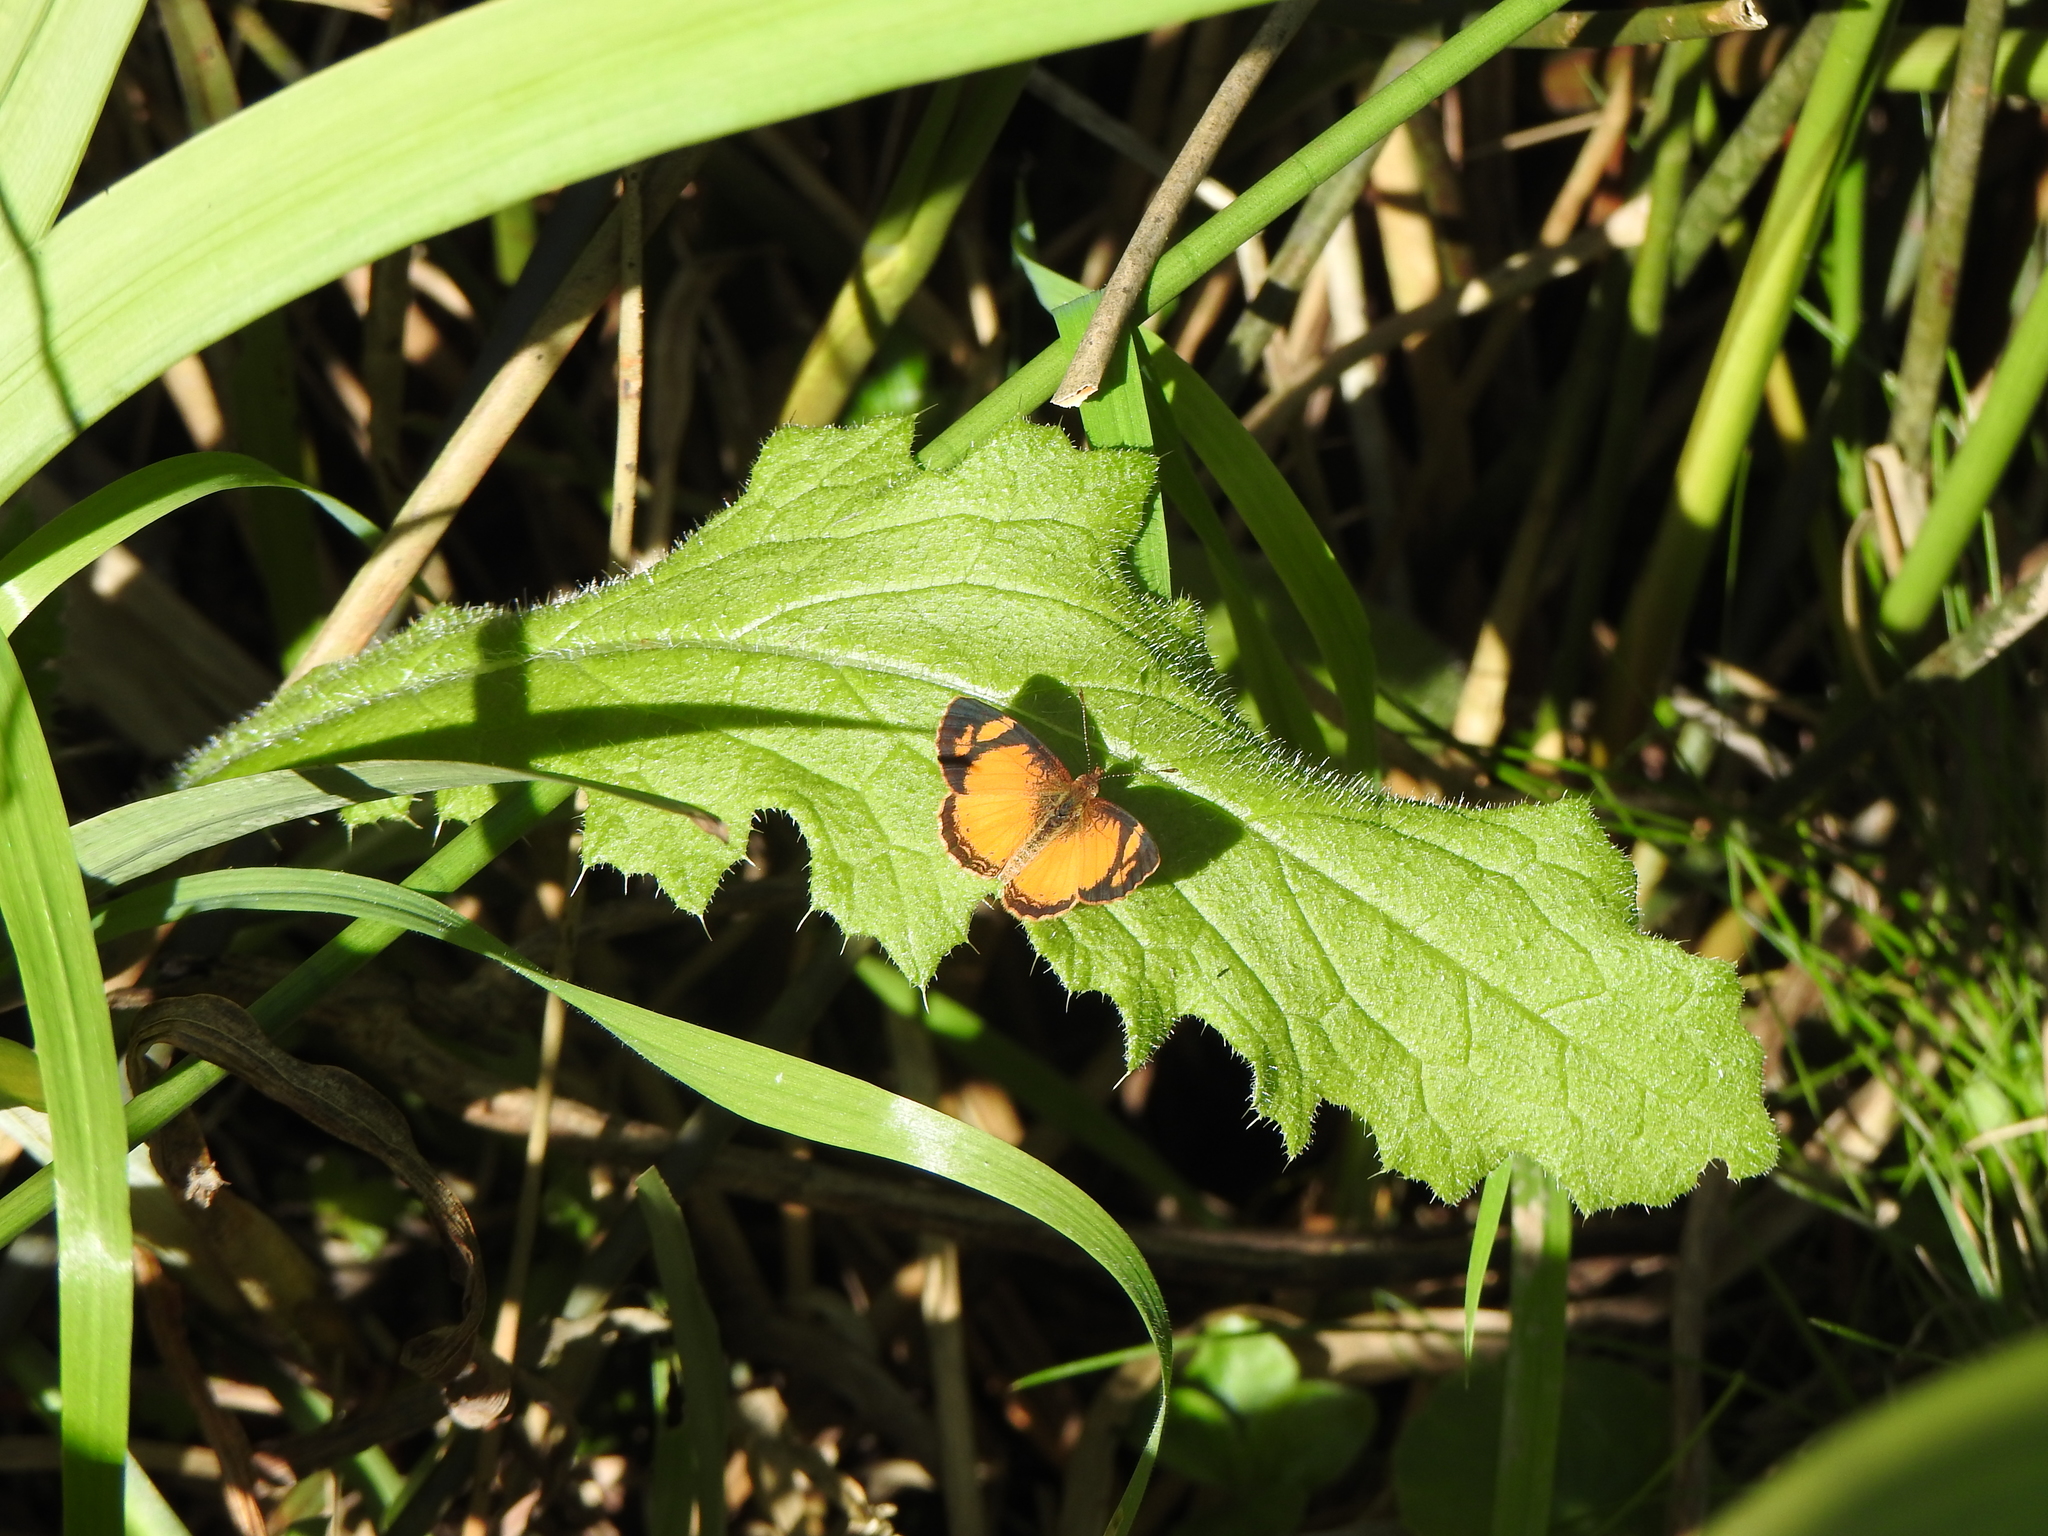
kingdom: Animalia
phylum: Arthropoda
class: Insecta
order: Lepidoptera
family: Nymphalidae
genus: Tegosa
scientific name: Tegosa claudina
